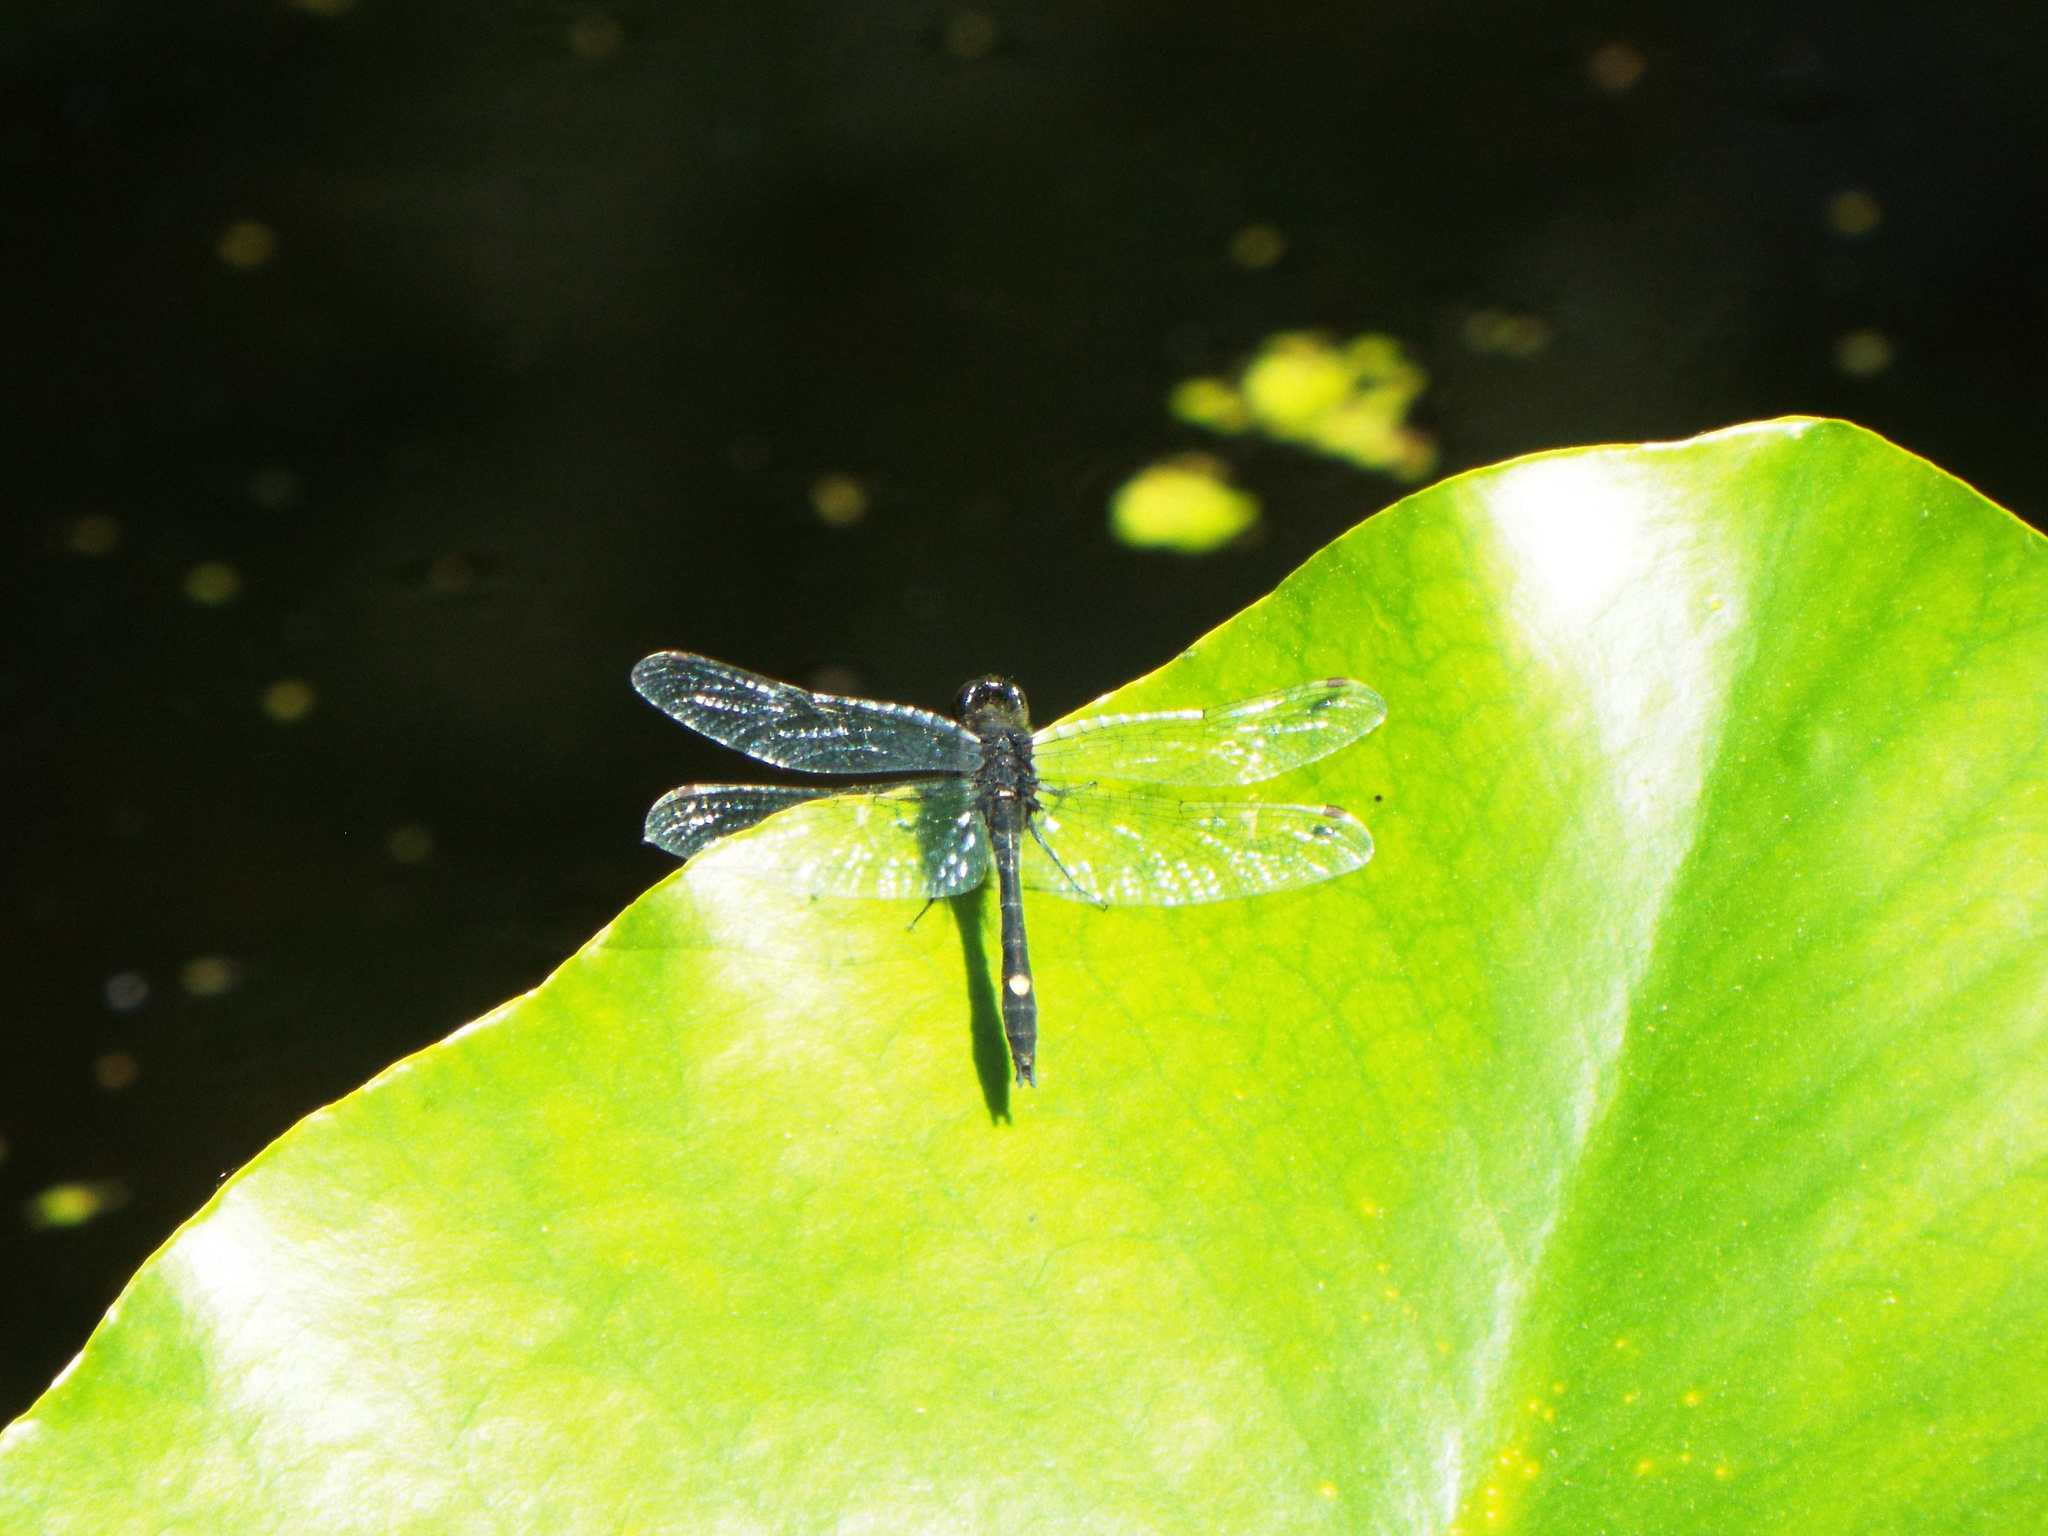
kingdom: Animalia
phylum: Arthropoda
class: Insecta
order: Odonata
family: Libellulidae
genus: Leucorrhinia
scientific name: Leucorrhinia intacta
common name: Dot-tailed whiteface
